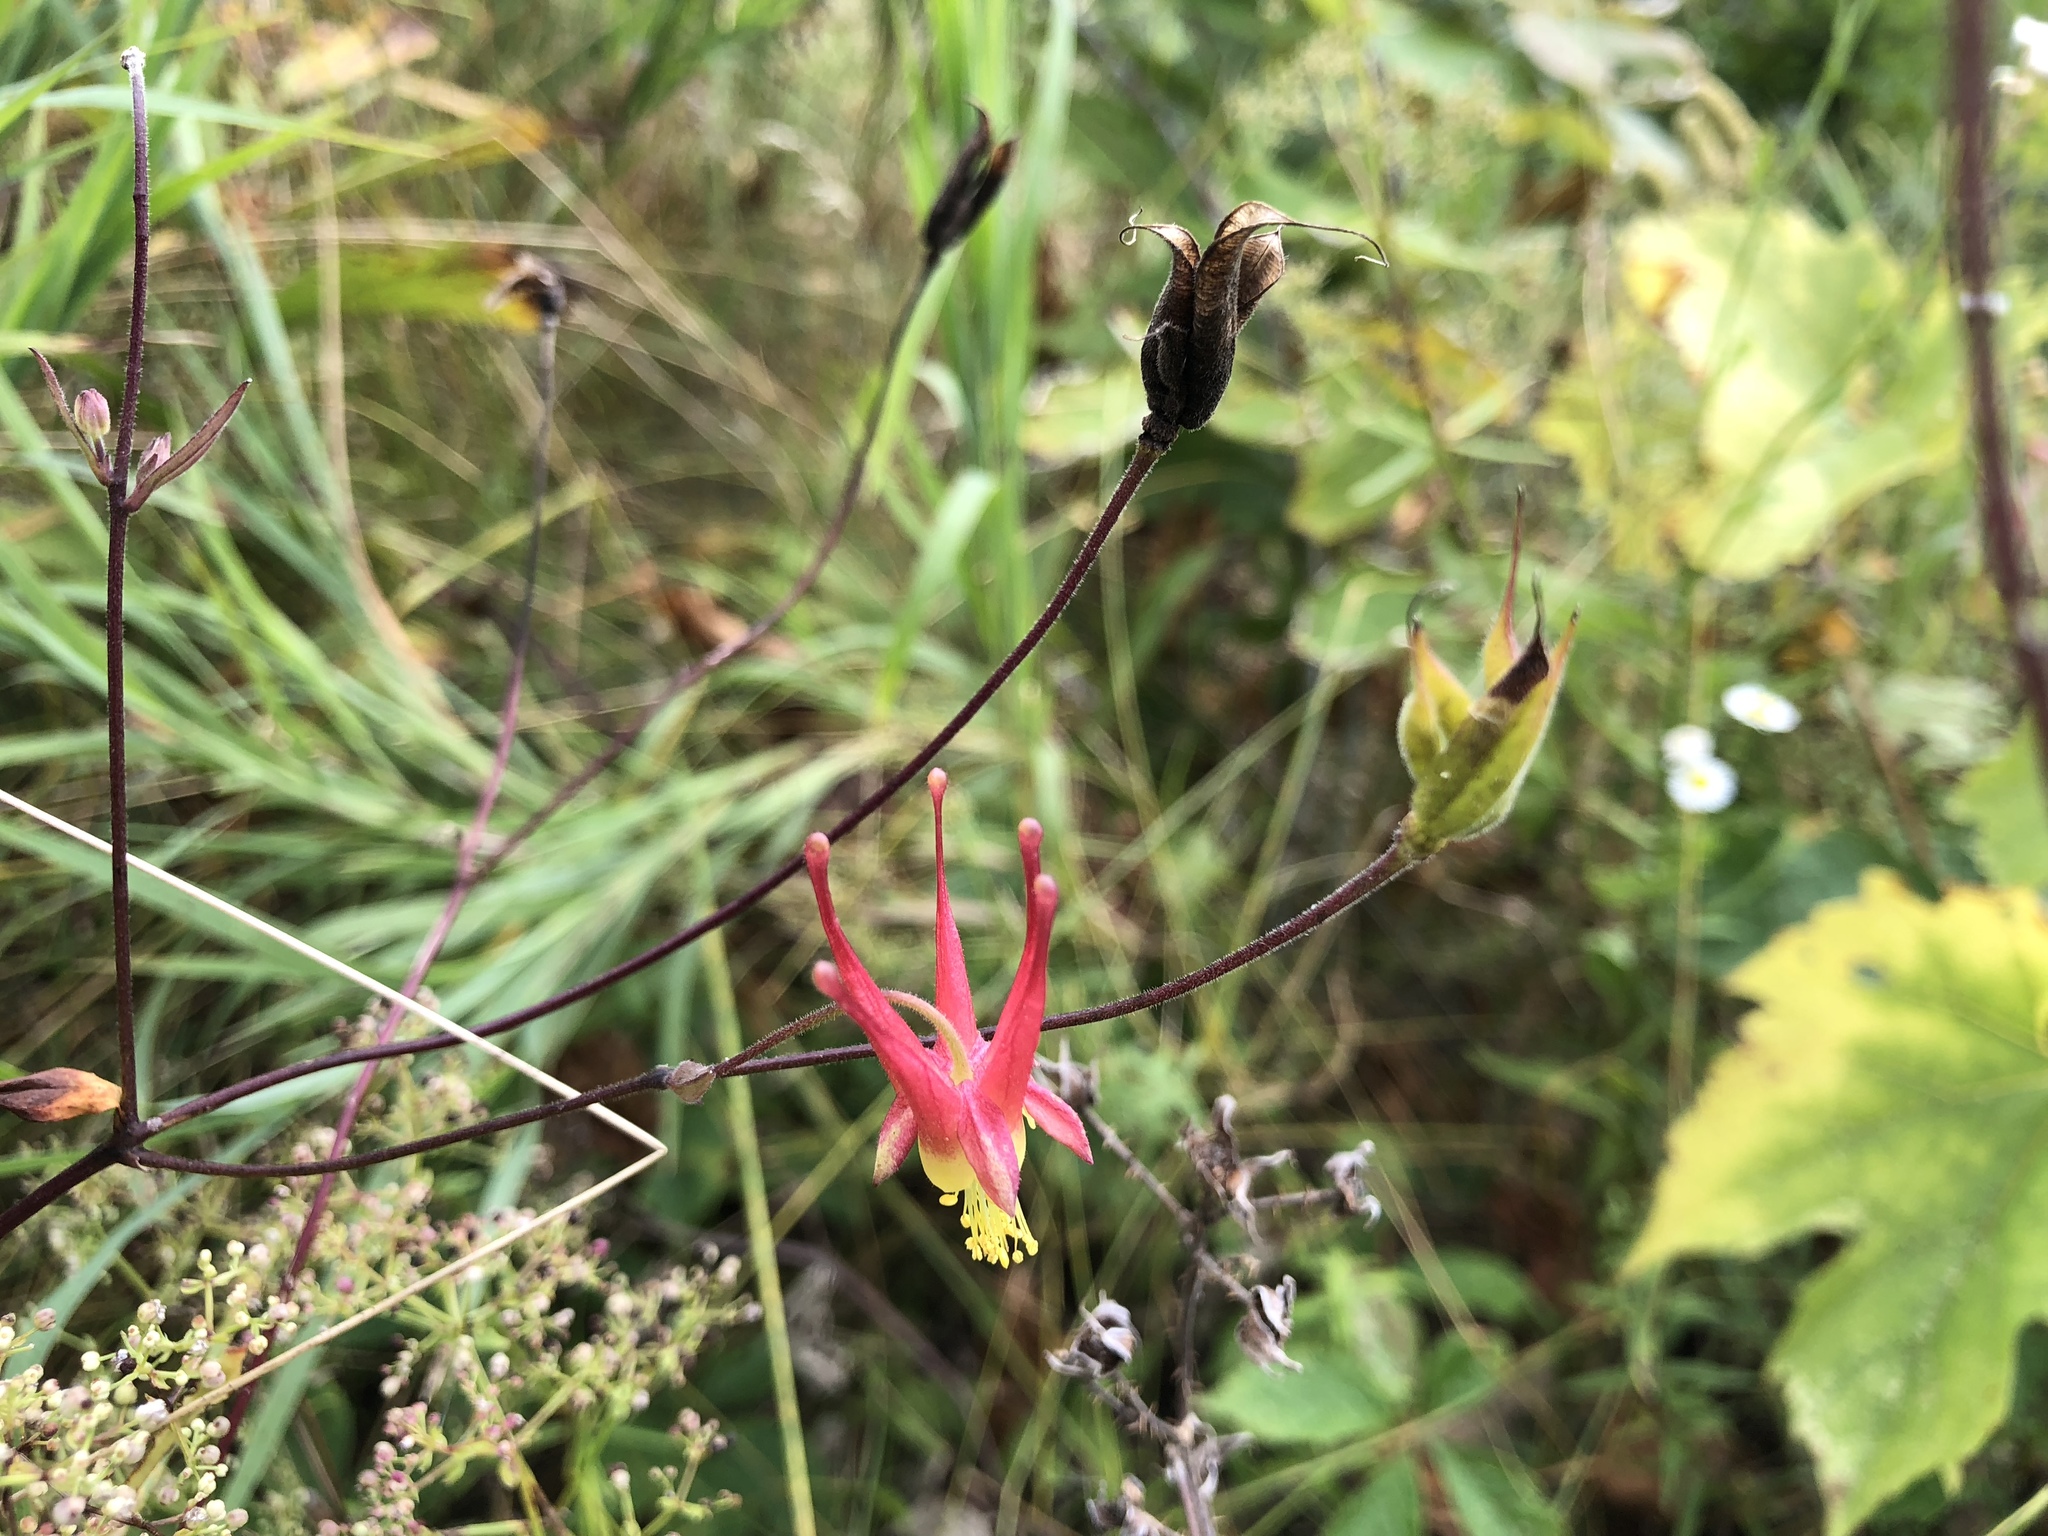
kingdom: Plantae
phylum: Tracheophyta
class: Magnoliopsida
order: Ranunculales
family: Ranunculaceae
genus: Aquilegia
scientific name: Aquilegia canadensis
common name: American columbine
